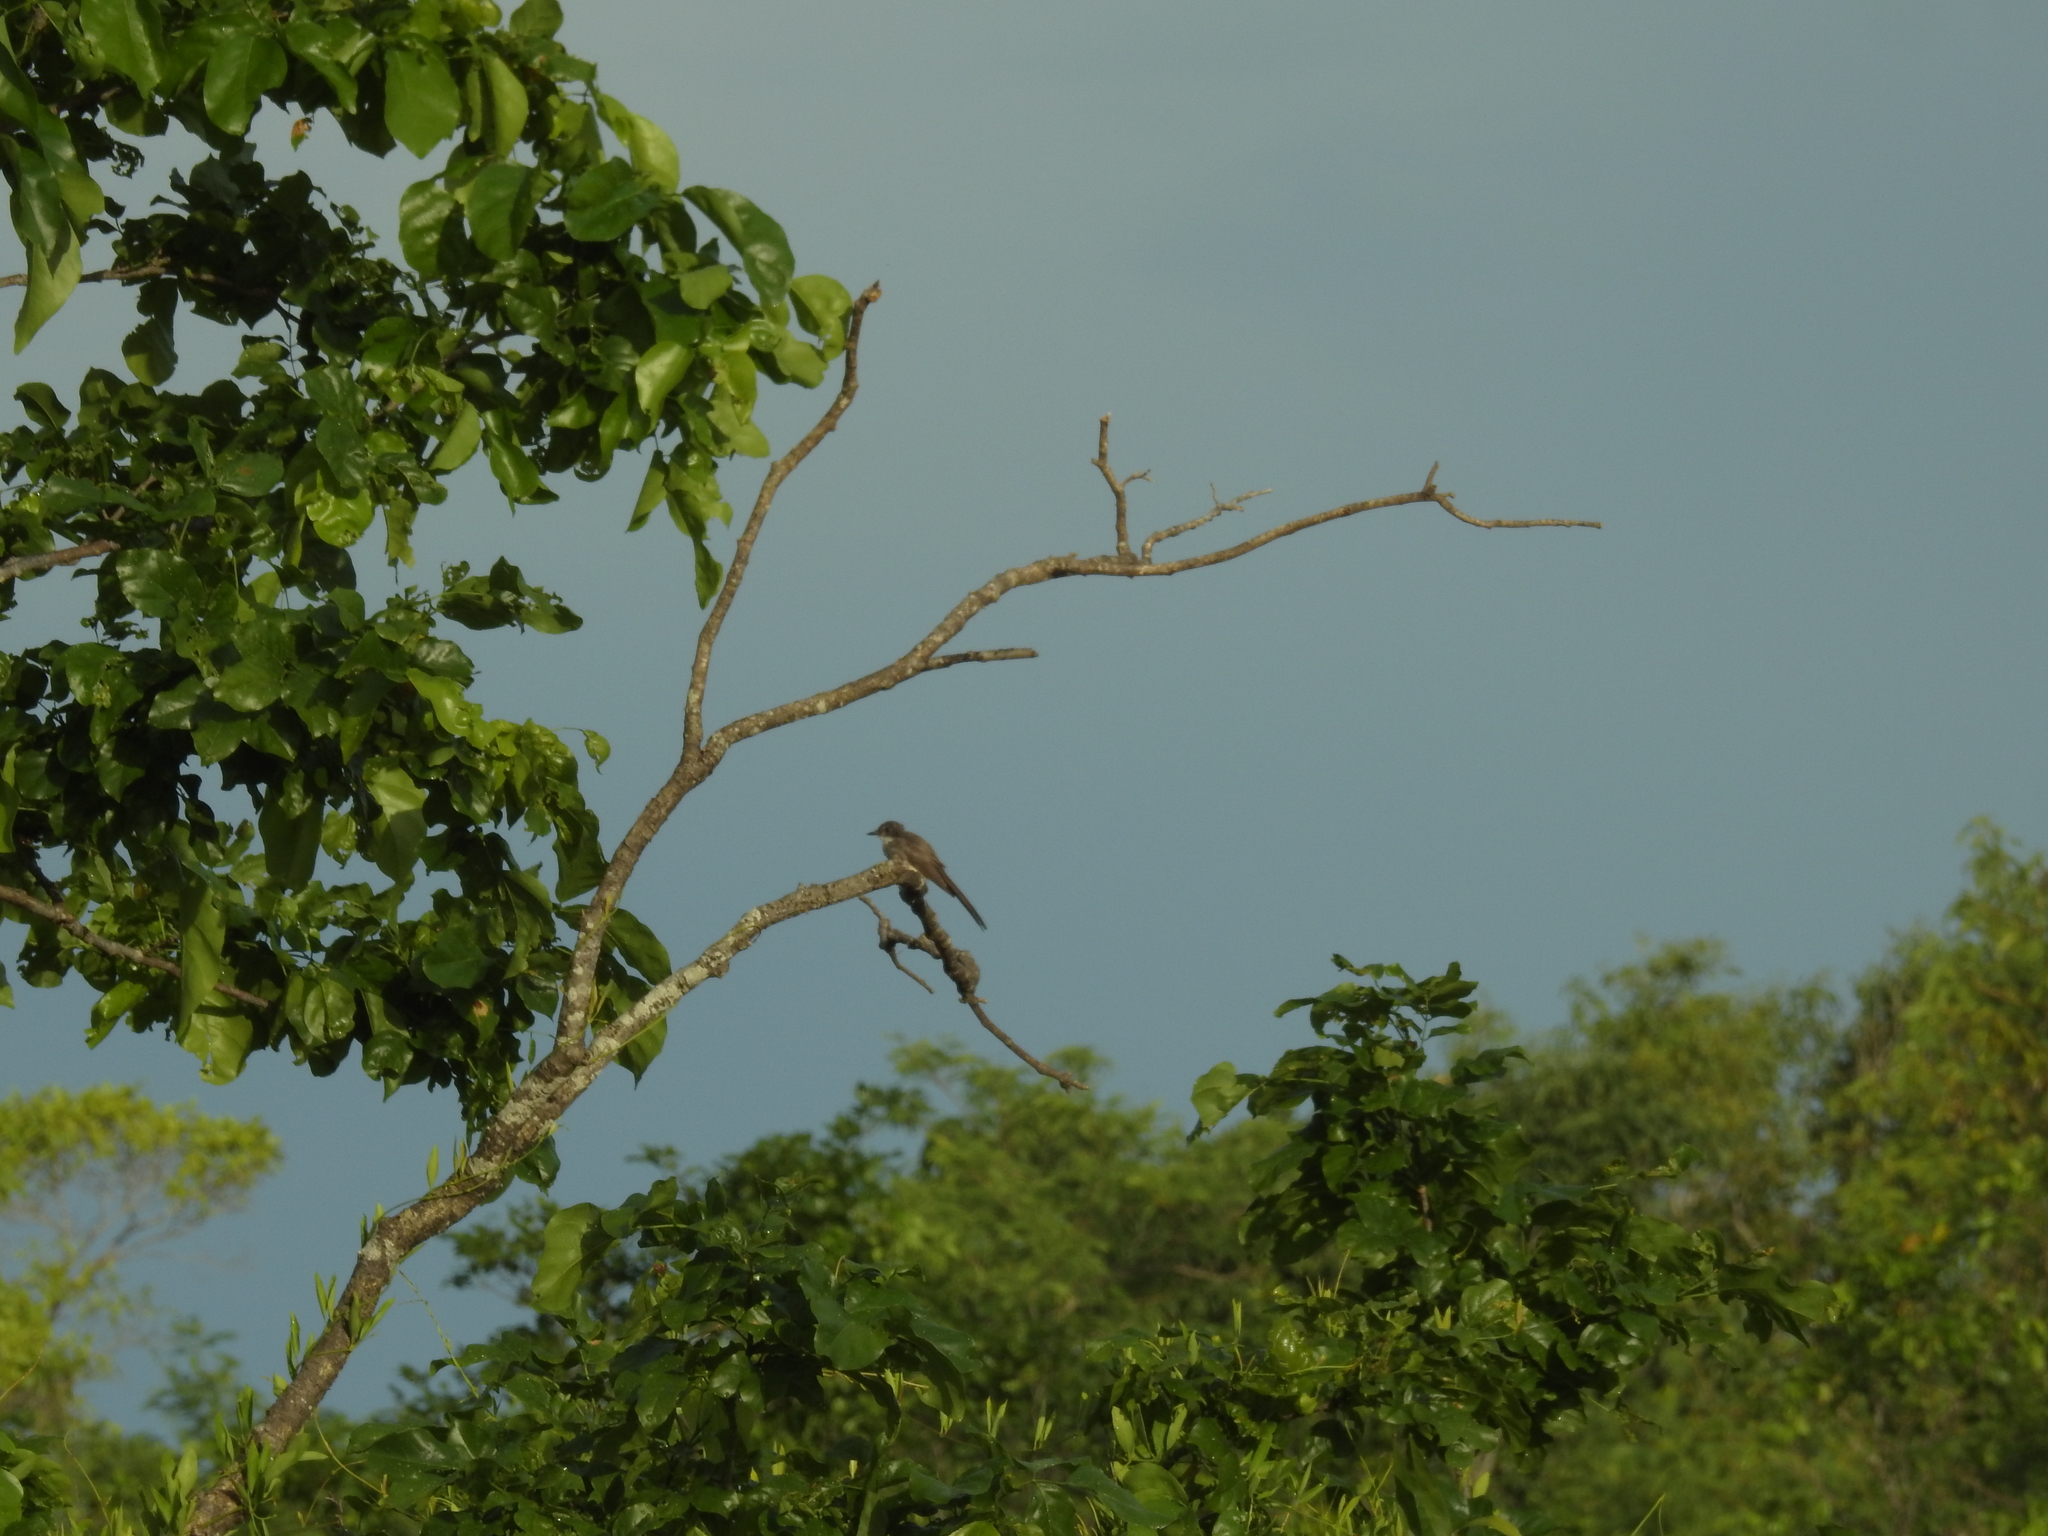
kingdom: Animalia
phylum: Chordata
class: Aves
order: Passeriformes
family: Rhipiduridae
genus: Rhipidura
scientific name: Rhipidura rufiventris
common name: Northern fantail
